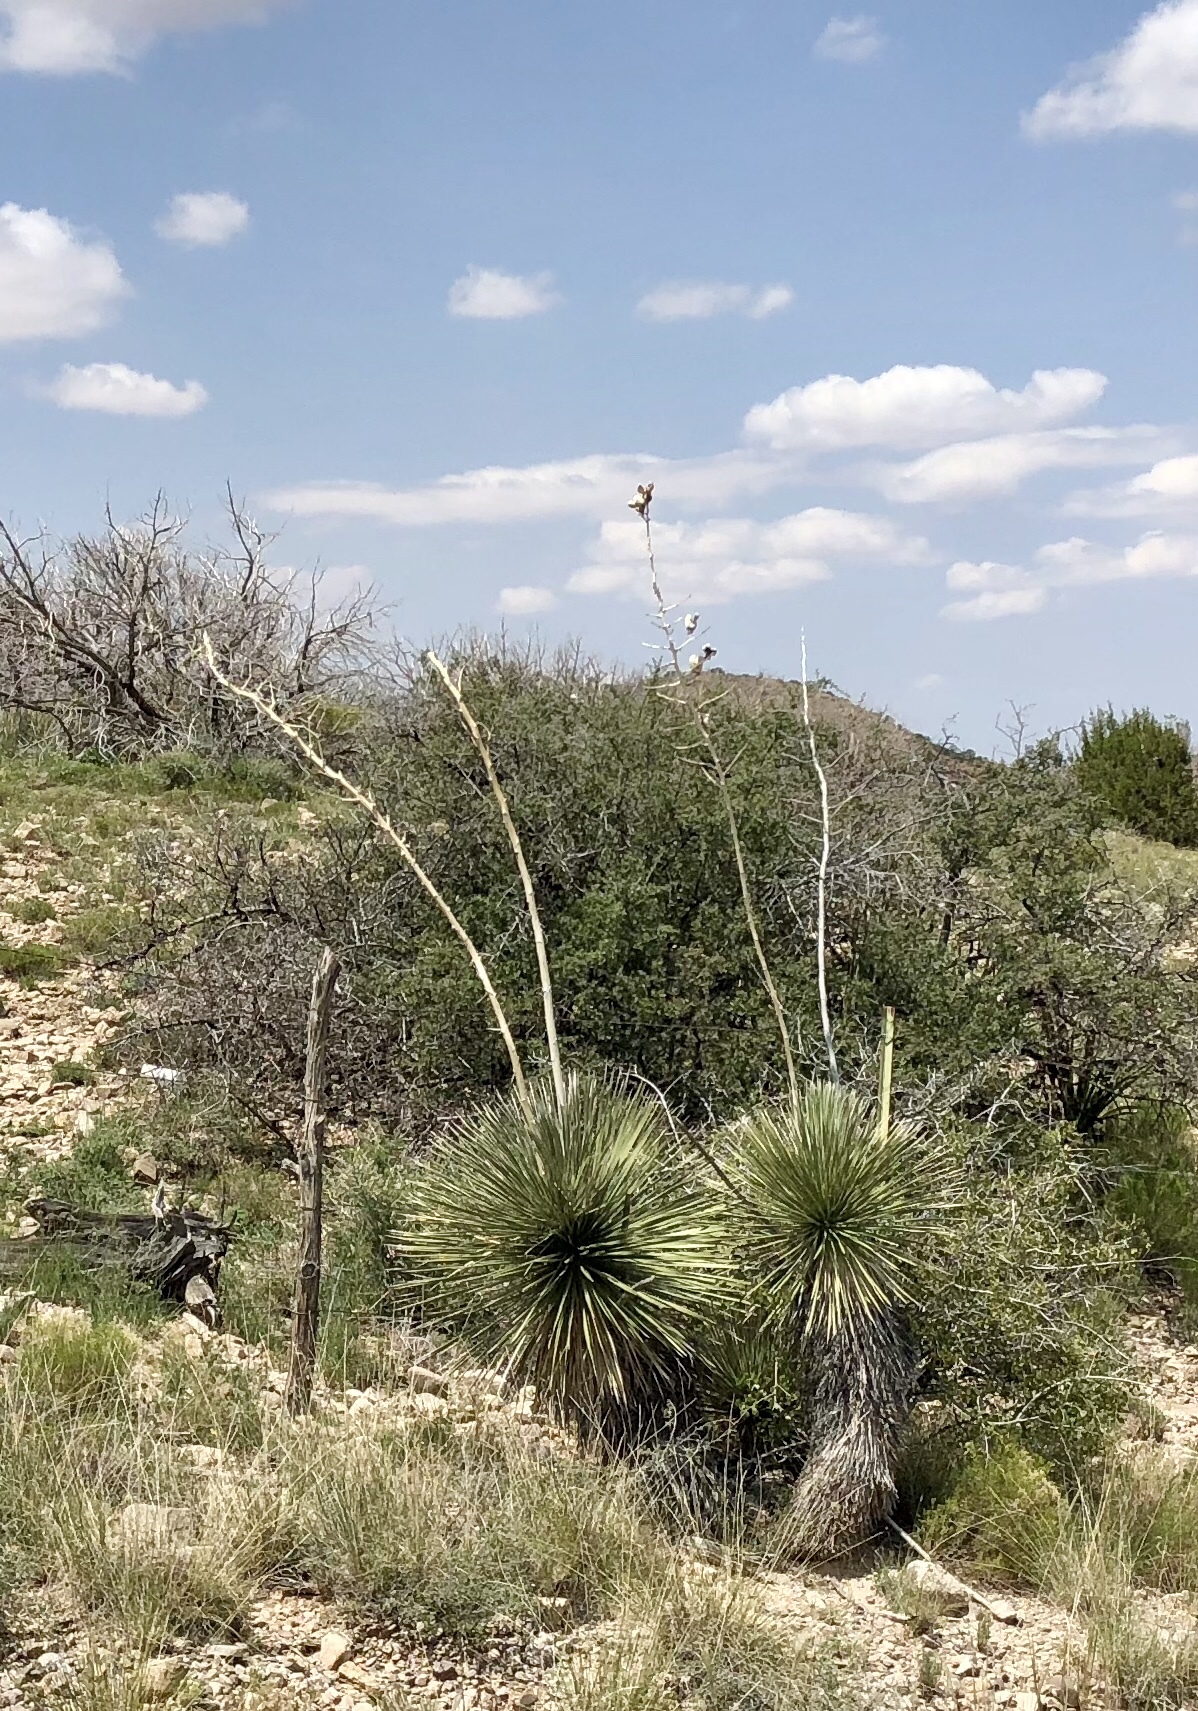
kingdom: Plantae
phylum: Tracheophyta
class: Liliopsida
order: Asparagales
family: Asparagaceae
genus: Yucca
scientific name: Yucca elata
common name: Palmella
